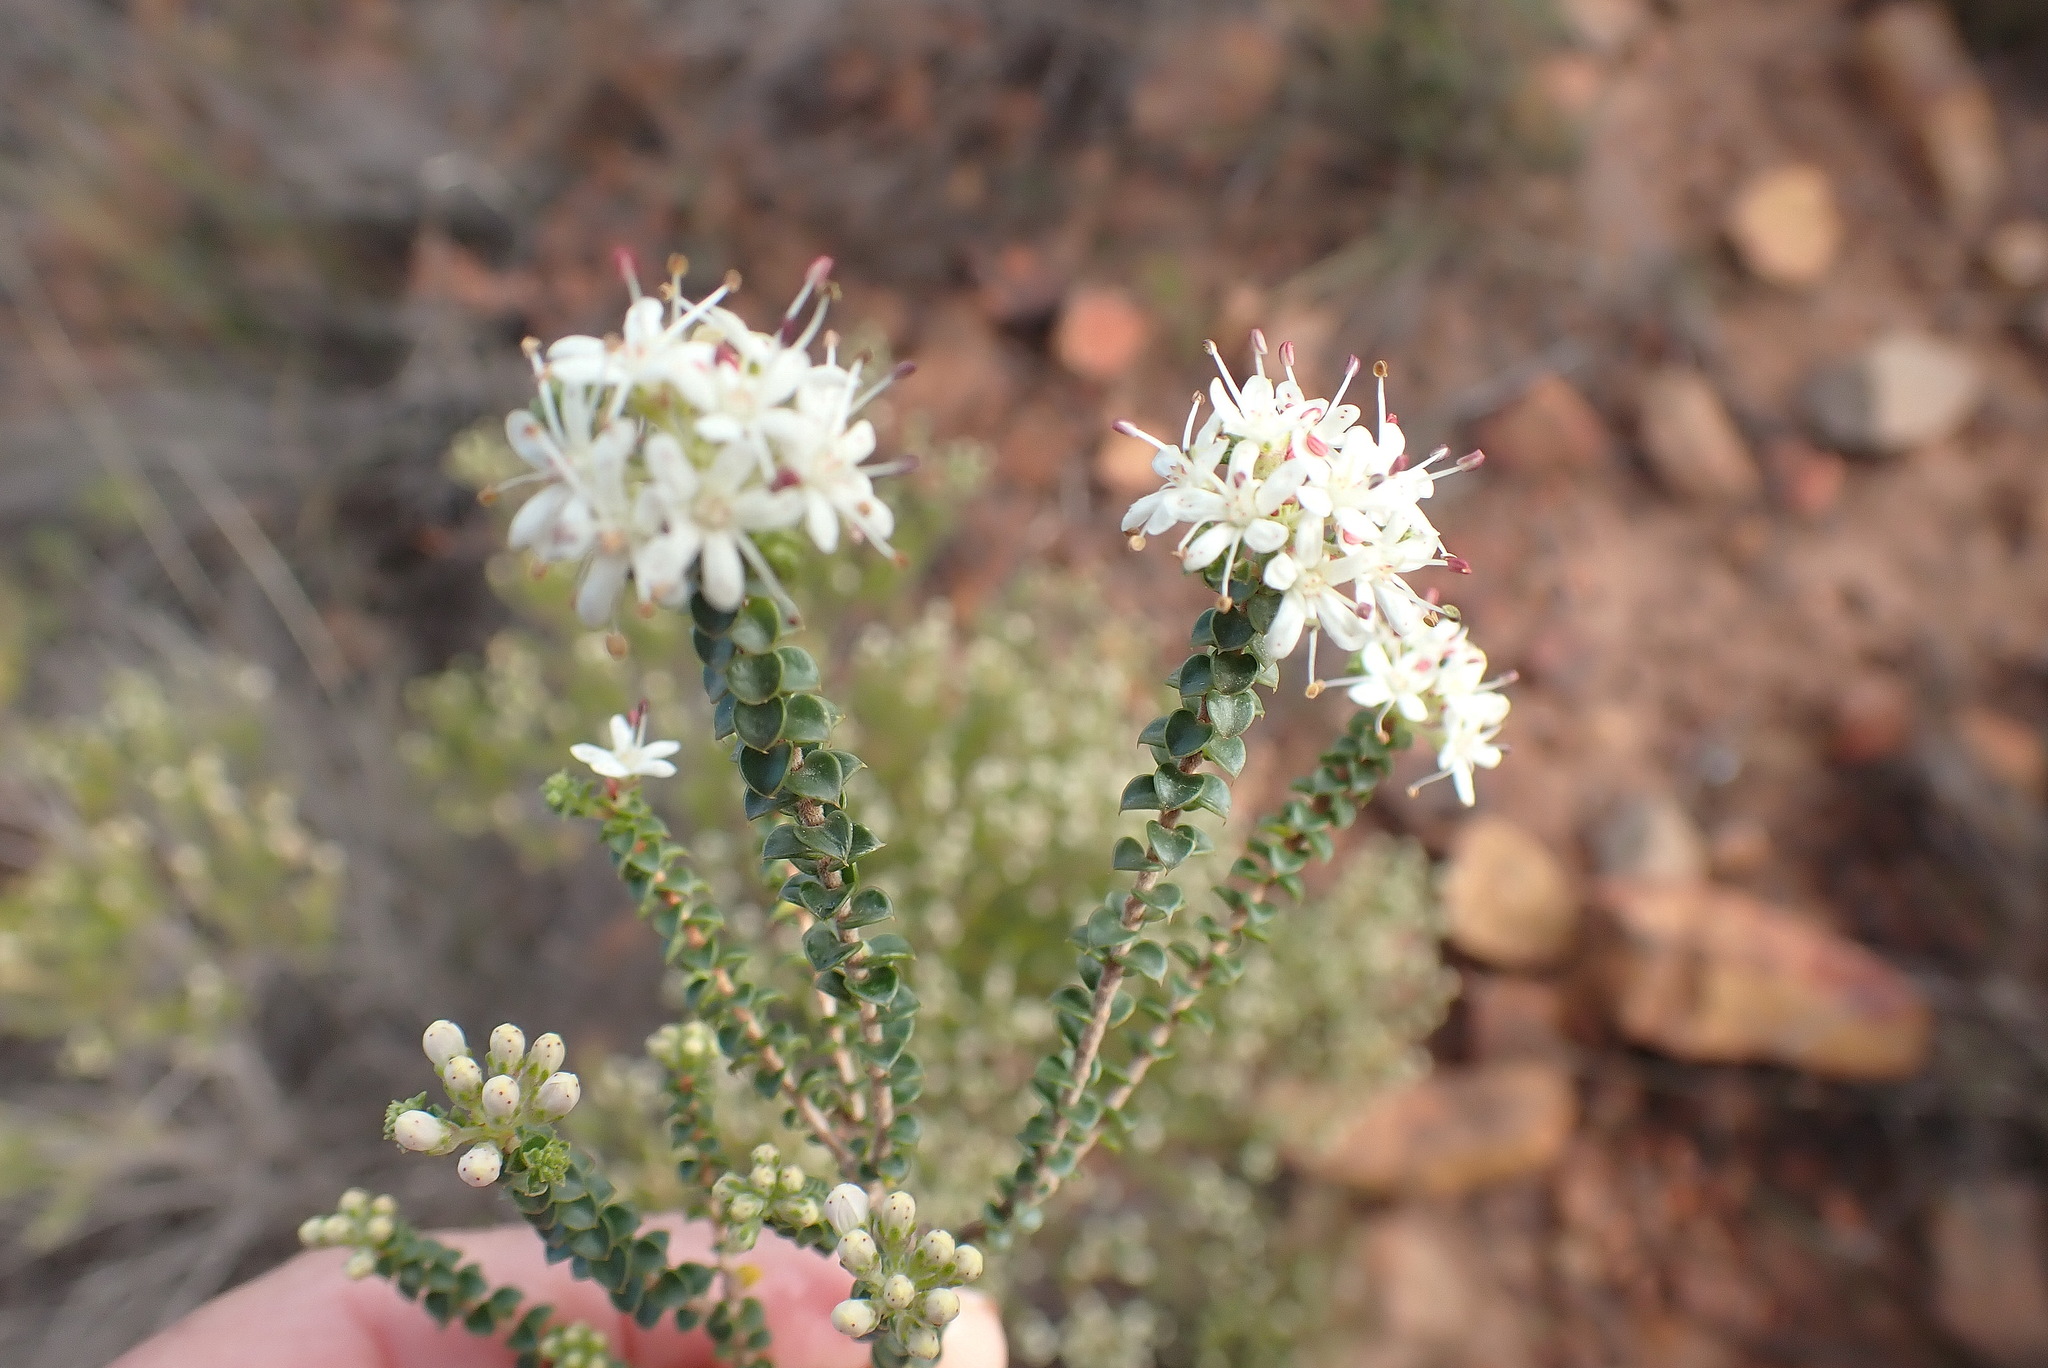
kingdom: Plantae
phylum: Tracheophyta
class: Magnoliopsida
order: Sapindales
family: Rutaceae
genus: Agathosma
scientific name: Agathosma recurvifolia
